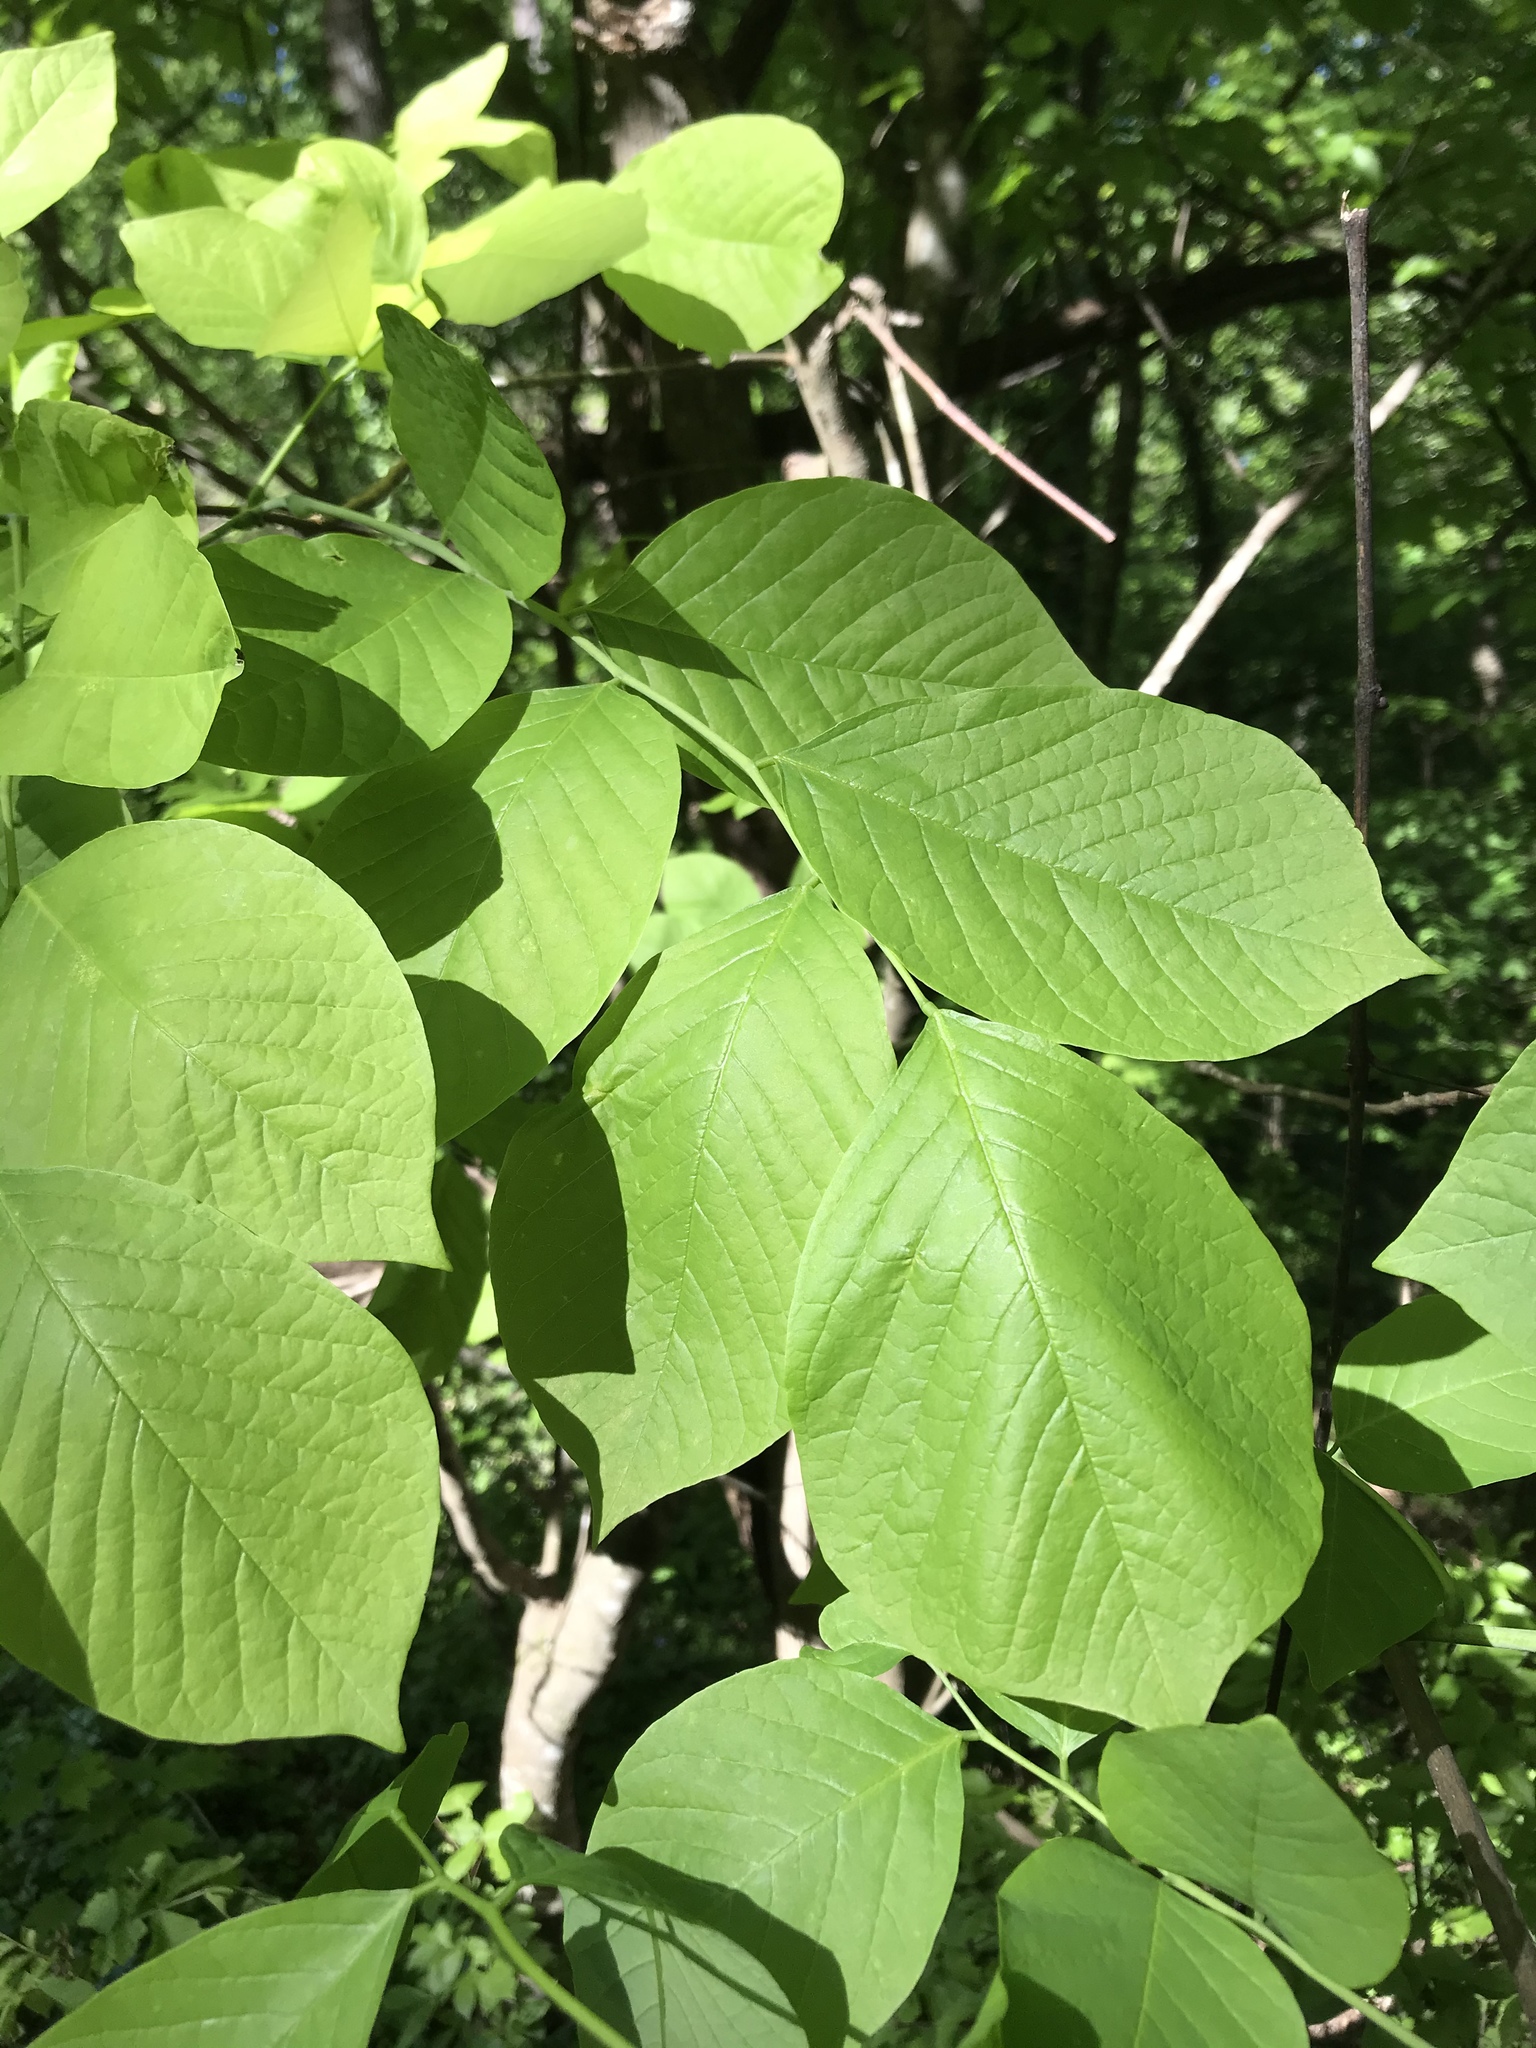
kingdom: Plantae
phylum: Tracheophyta
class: Magnoliopsida
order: Fabales
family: Fabaceae
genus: Cladrastis
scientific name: Cladrastis kentukea
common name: Kentucky yellow-wood
